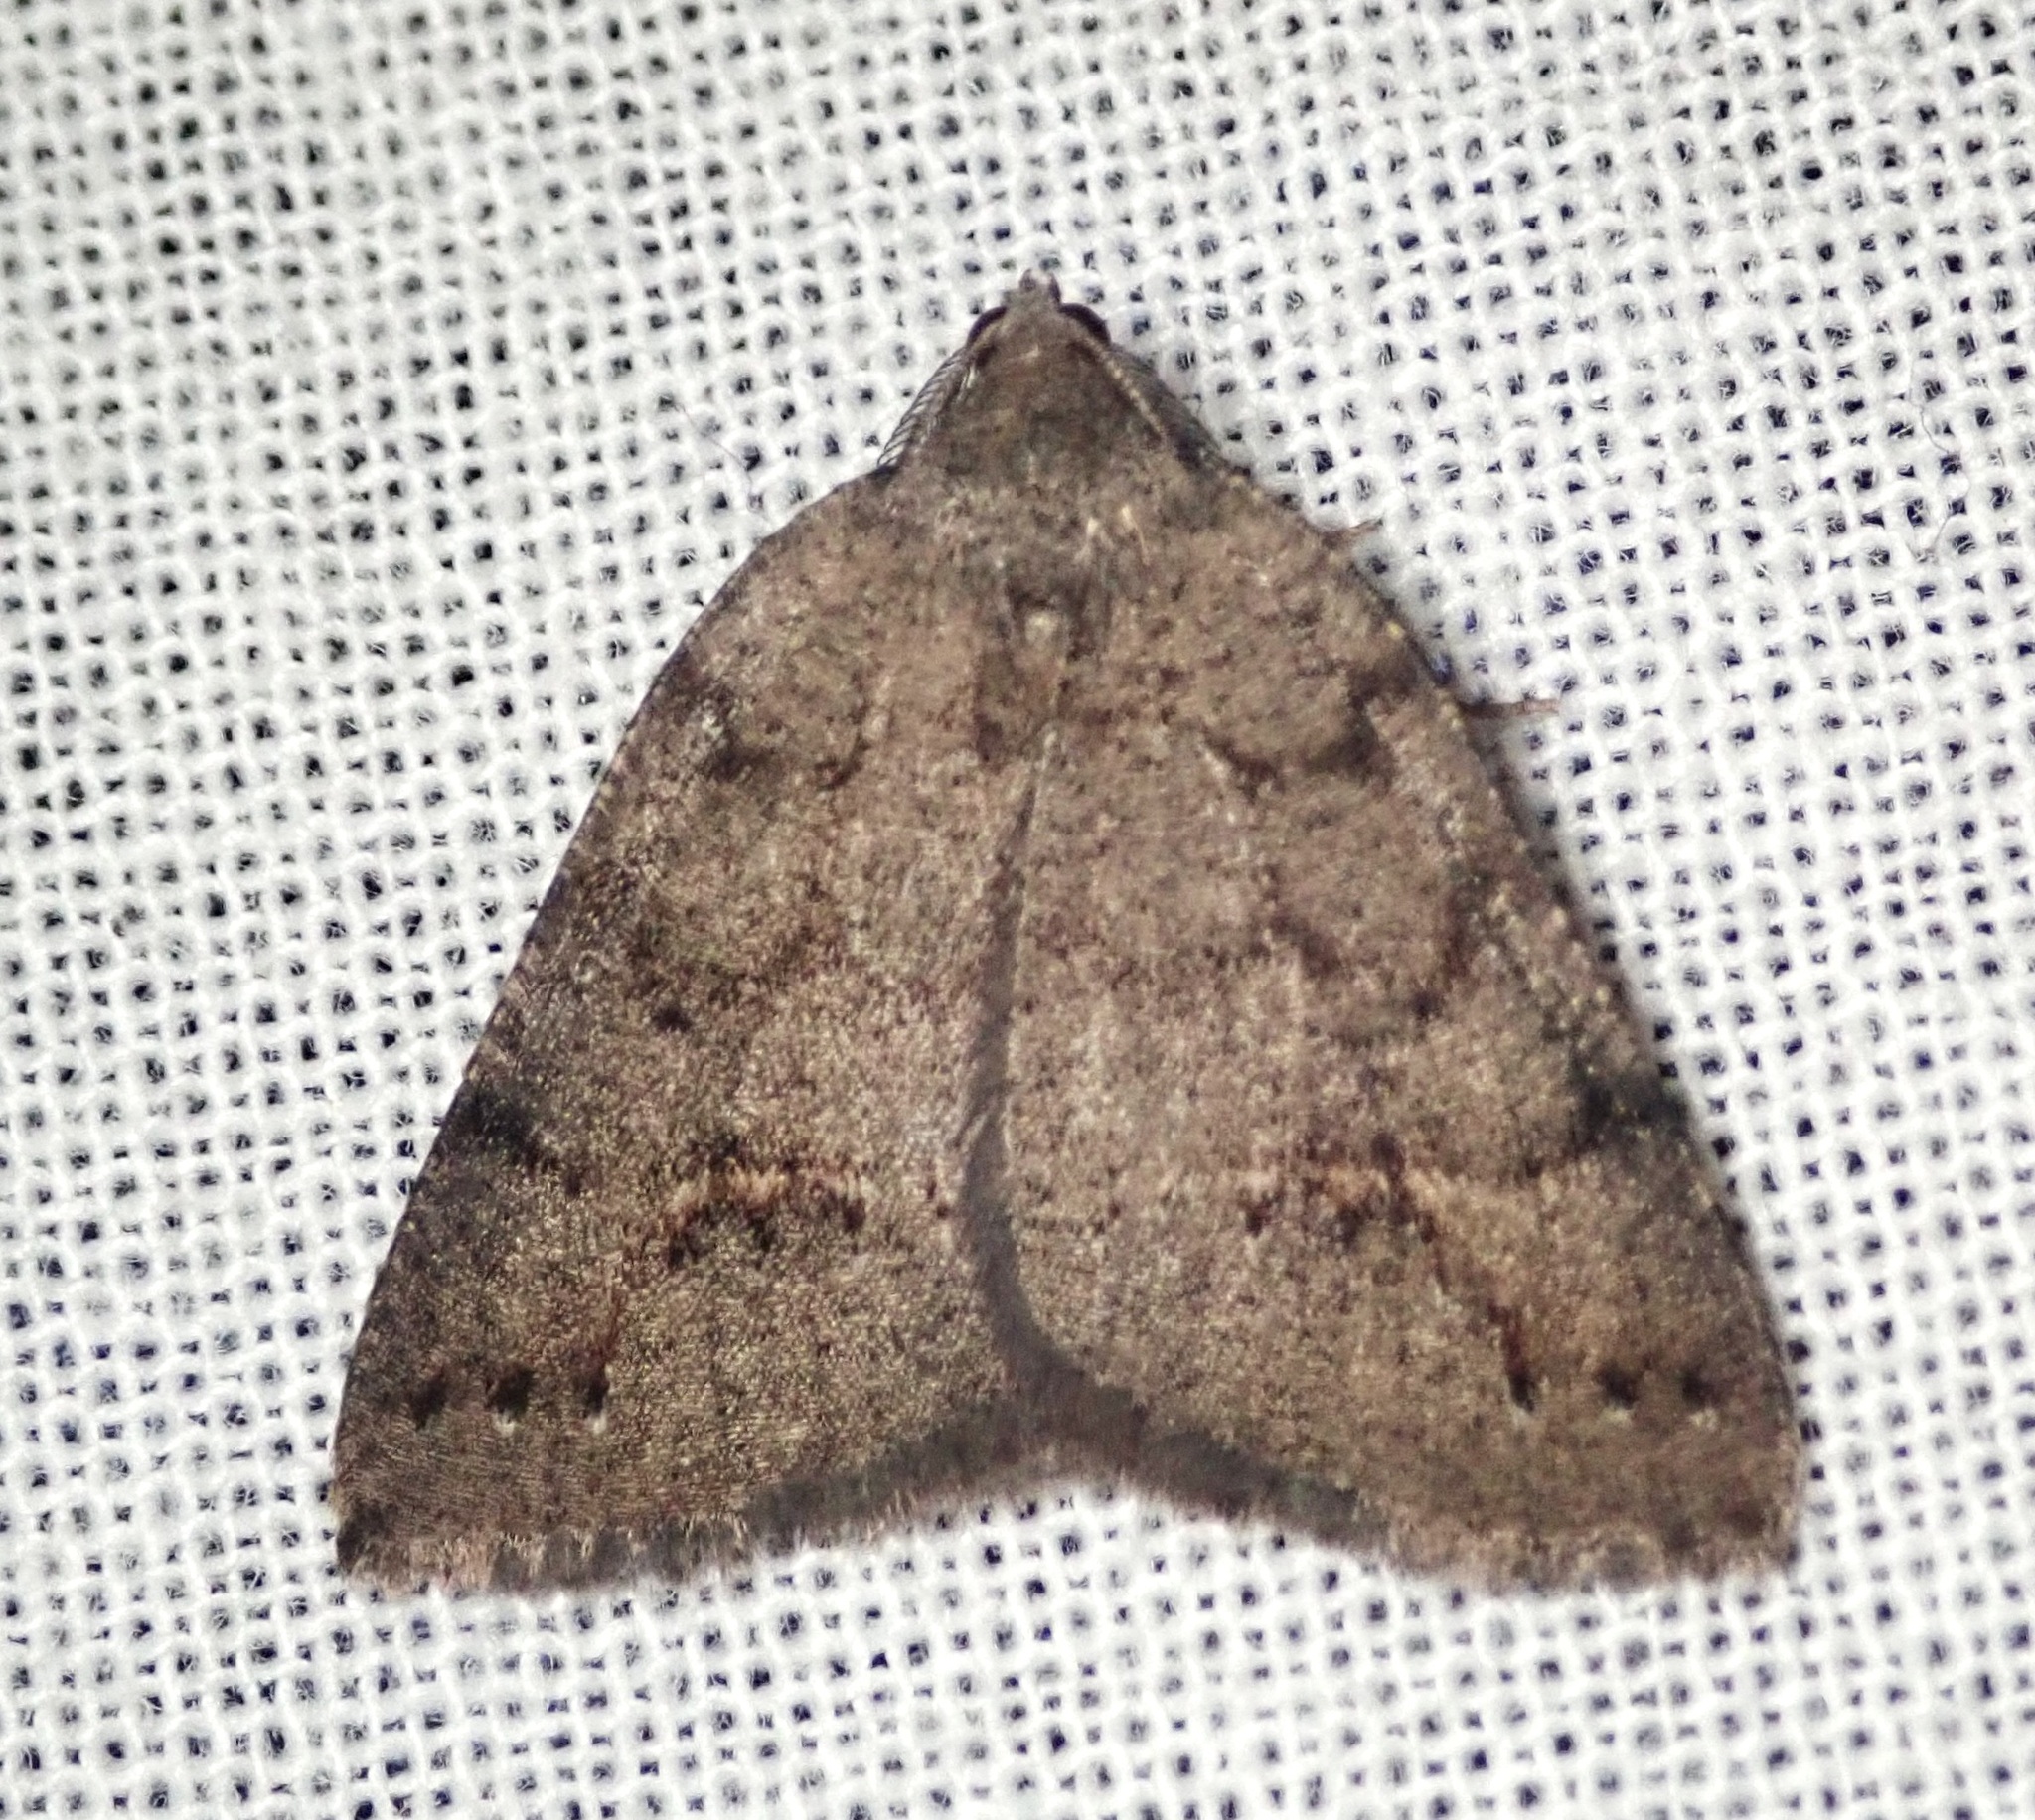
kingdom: Animalia
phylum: Arthropoda
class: Insecta
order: Lepidoptera
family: Geometridae
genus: Drepanulatrix
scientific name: Drepanulatrix quadraria
